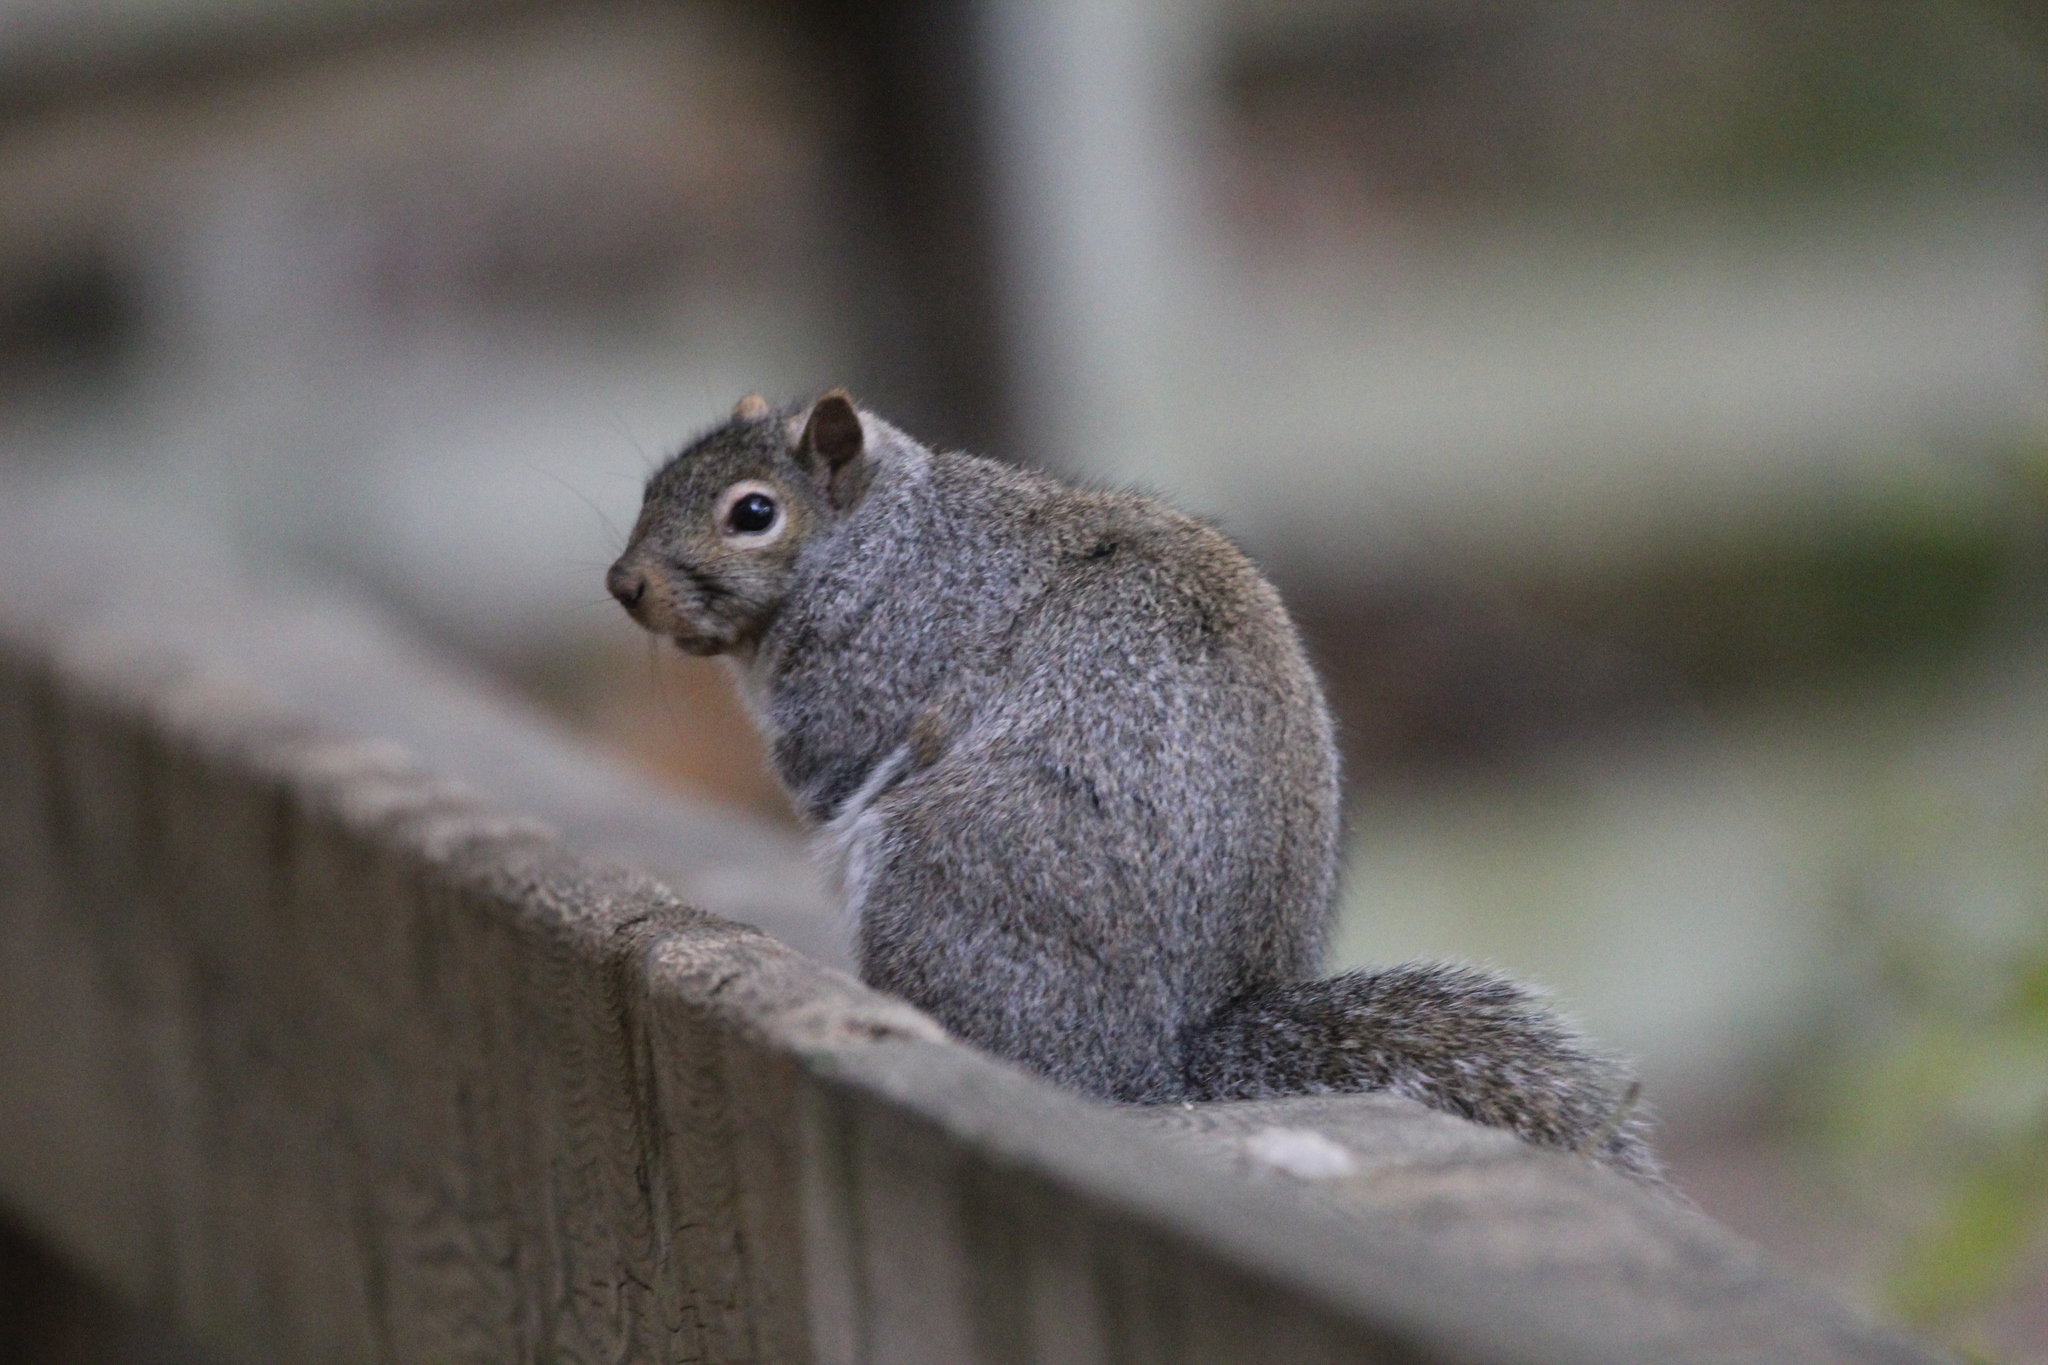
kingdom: Animalia
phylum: Chordata
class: Mammalia
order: Rodentia
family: Sciuridae
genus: Sciurus
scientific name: Sciurus carolinensis
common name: Eastern gray squirrel
